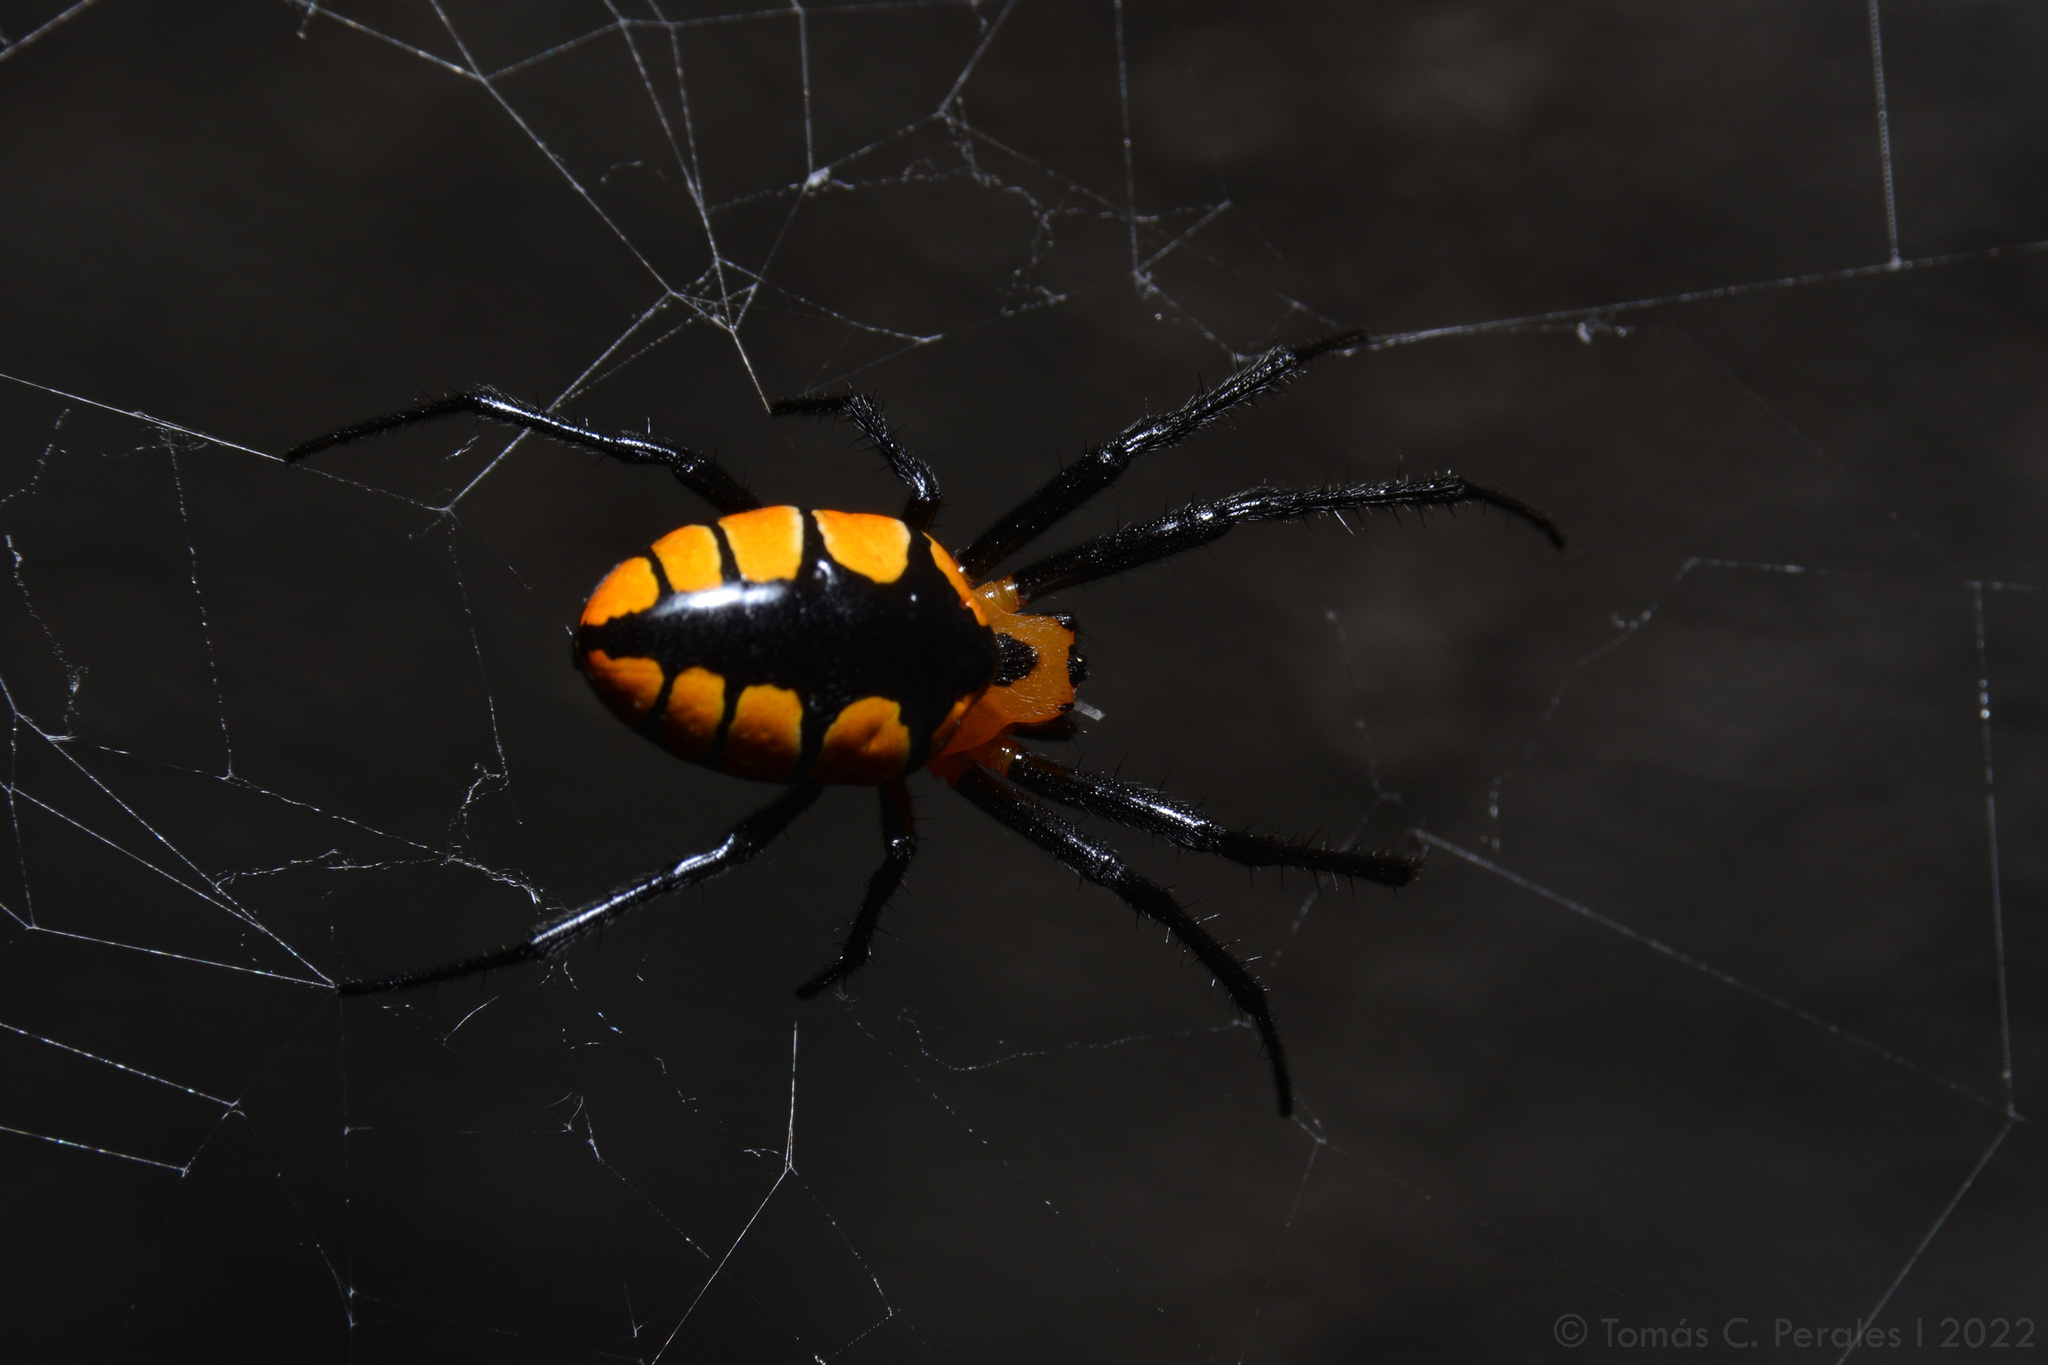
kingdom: Animalia
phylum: Arthropoda
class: Arachnida
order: Araneae
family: Araneidae
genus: Alpaida
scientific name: Alpaida latro
